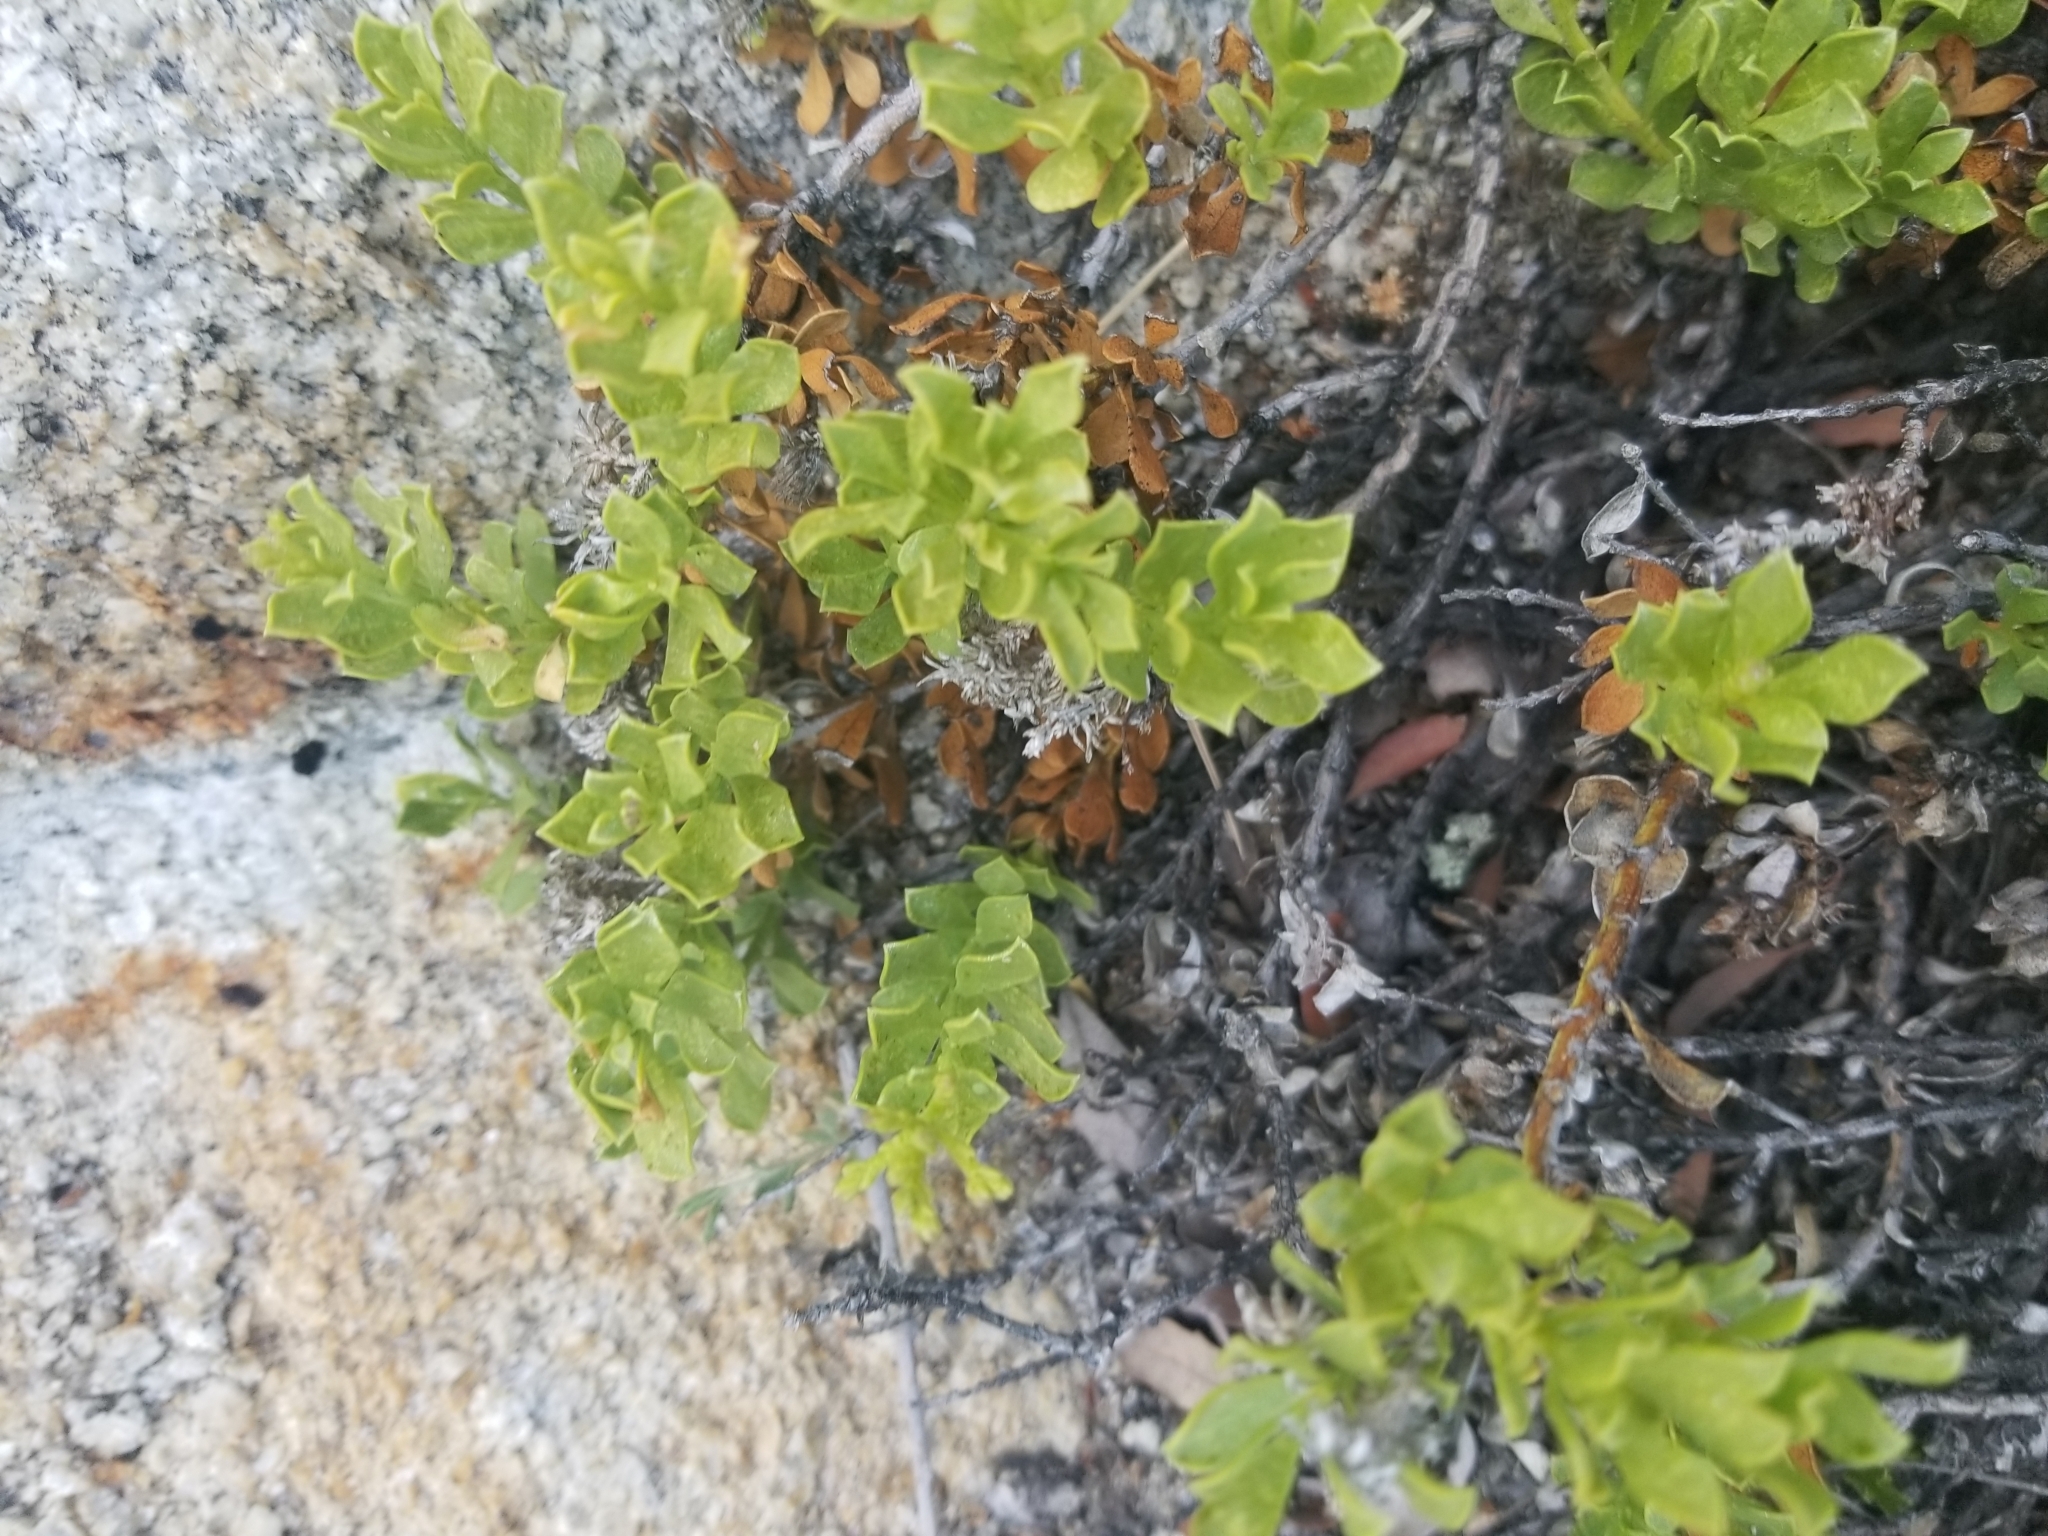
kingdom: Plantae
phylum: Tracheophyta
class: Magnoliopsida
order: Asterales
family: Asteraceae
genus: Ericameria
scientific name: Ericameria cuneata
